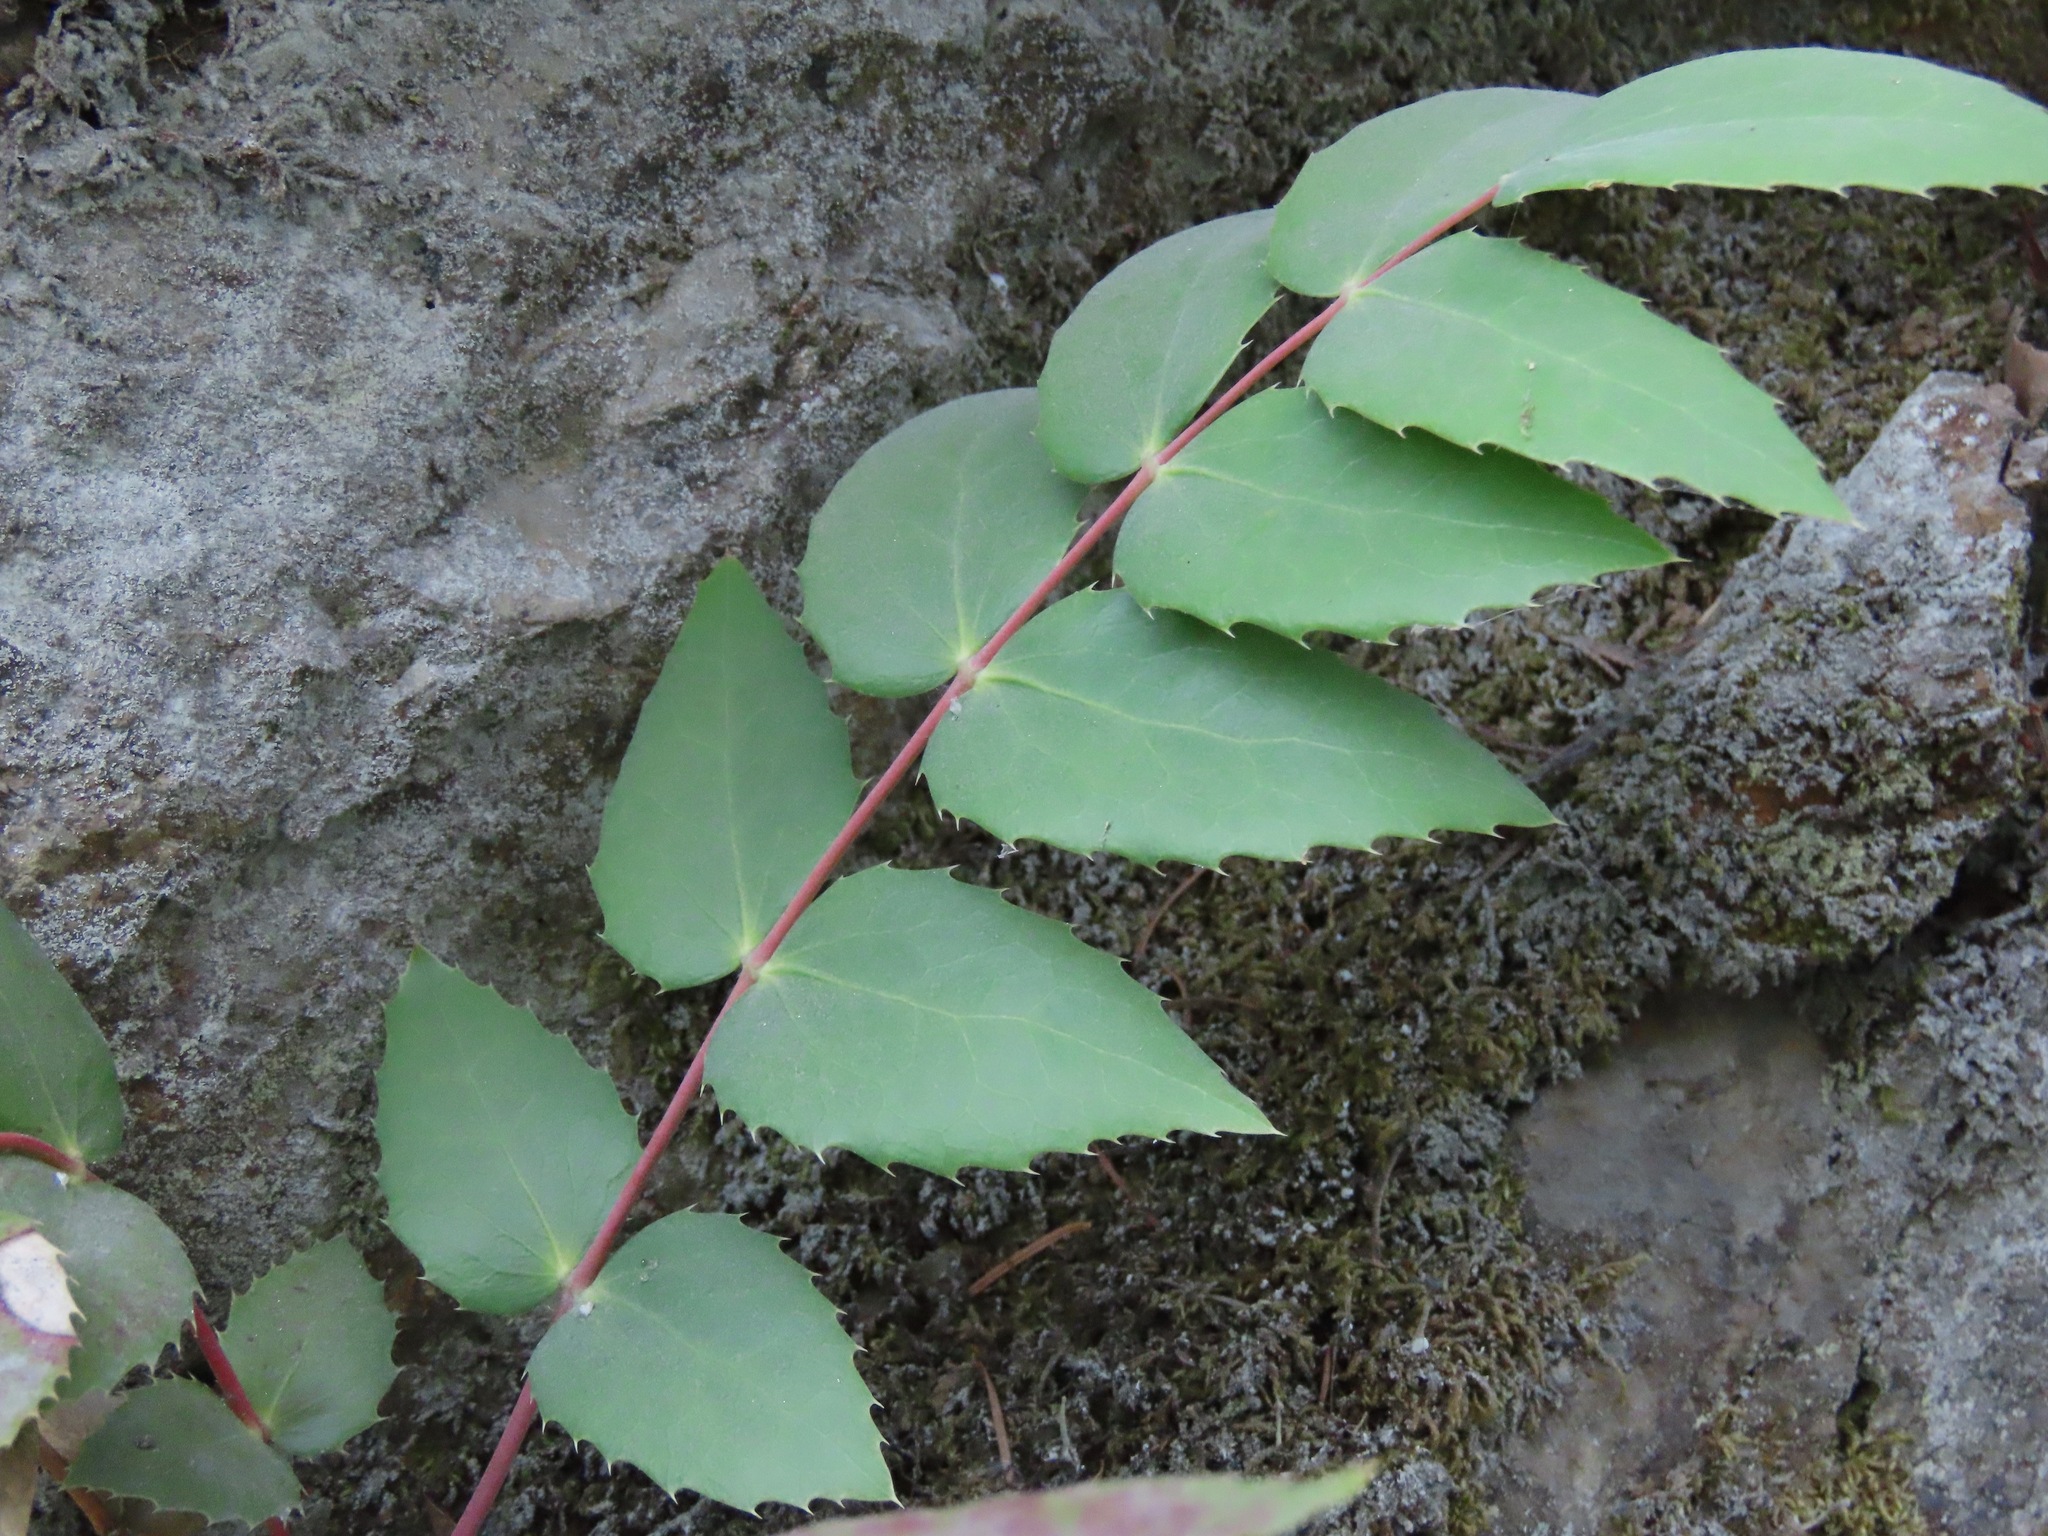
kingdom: Plantae
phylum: Tracheophyta
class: Magnoliopsida
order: Ranunculales
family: Berberidaceae
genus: Mahonia
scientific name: Mahonia nervosa
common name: Cascade oregon-grape
